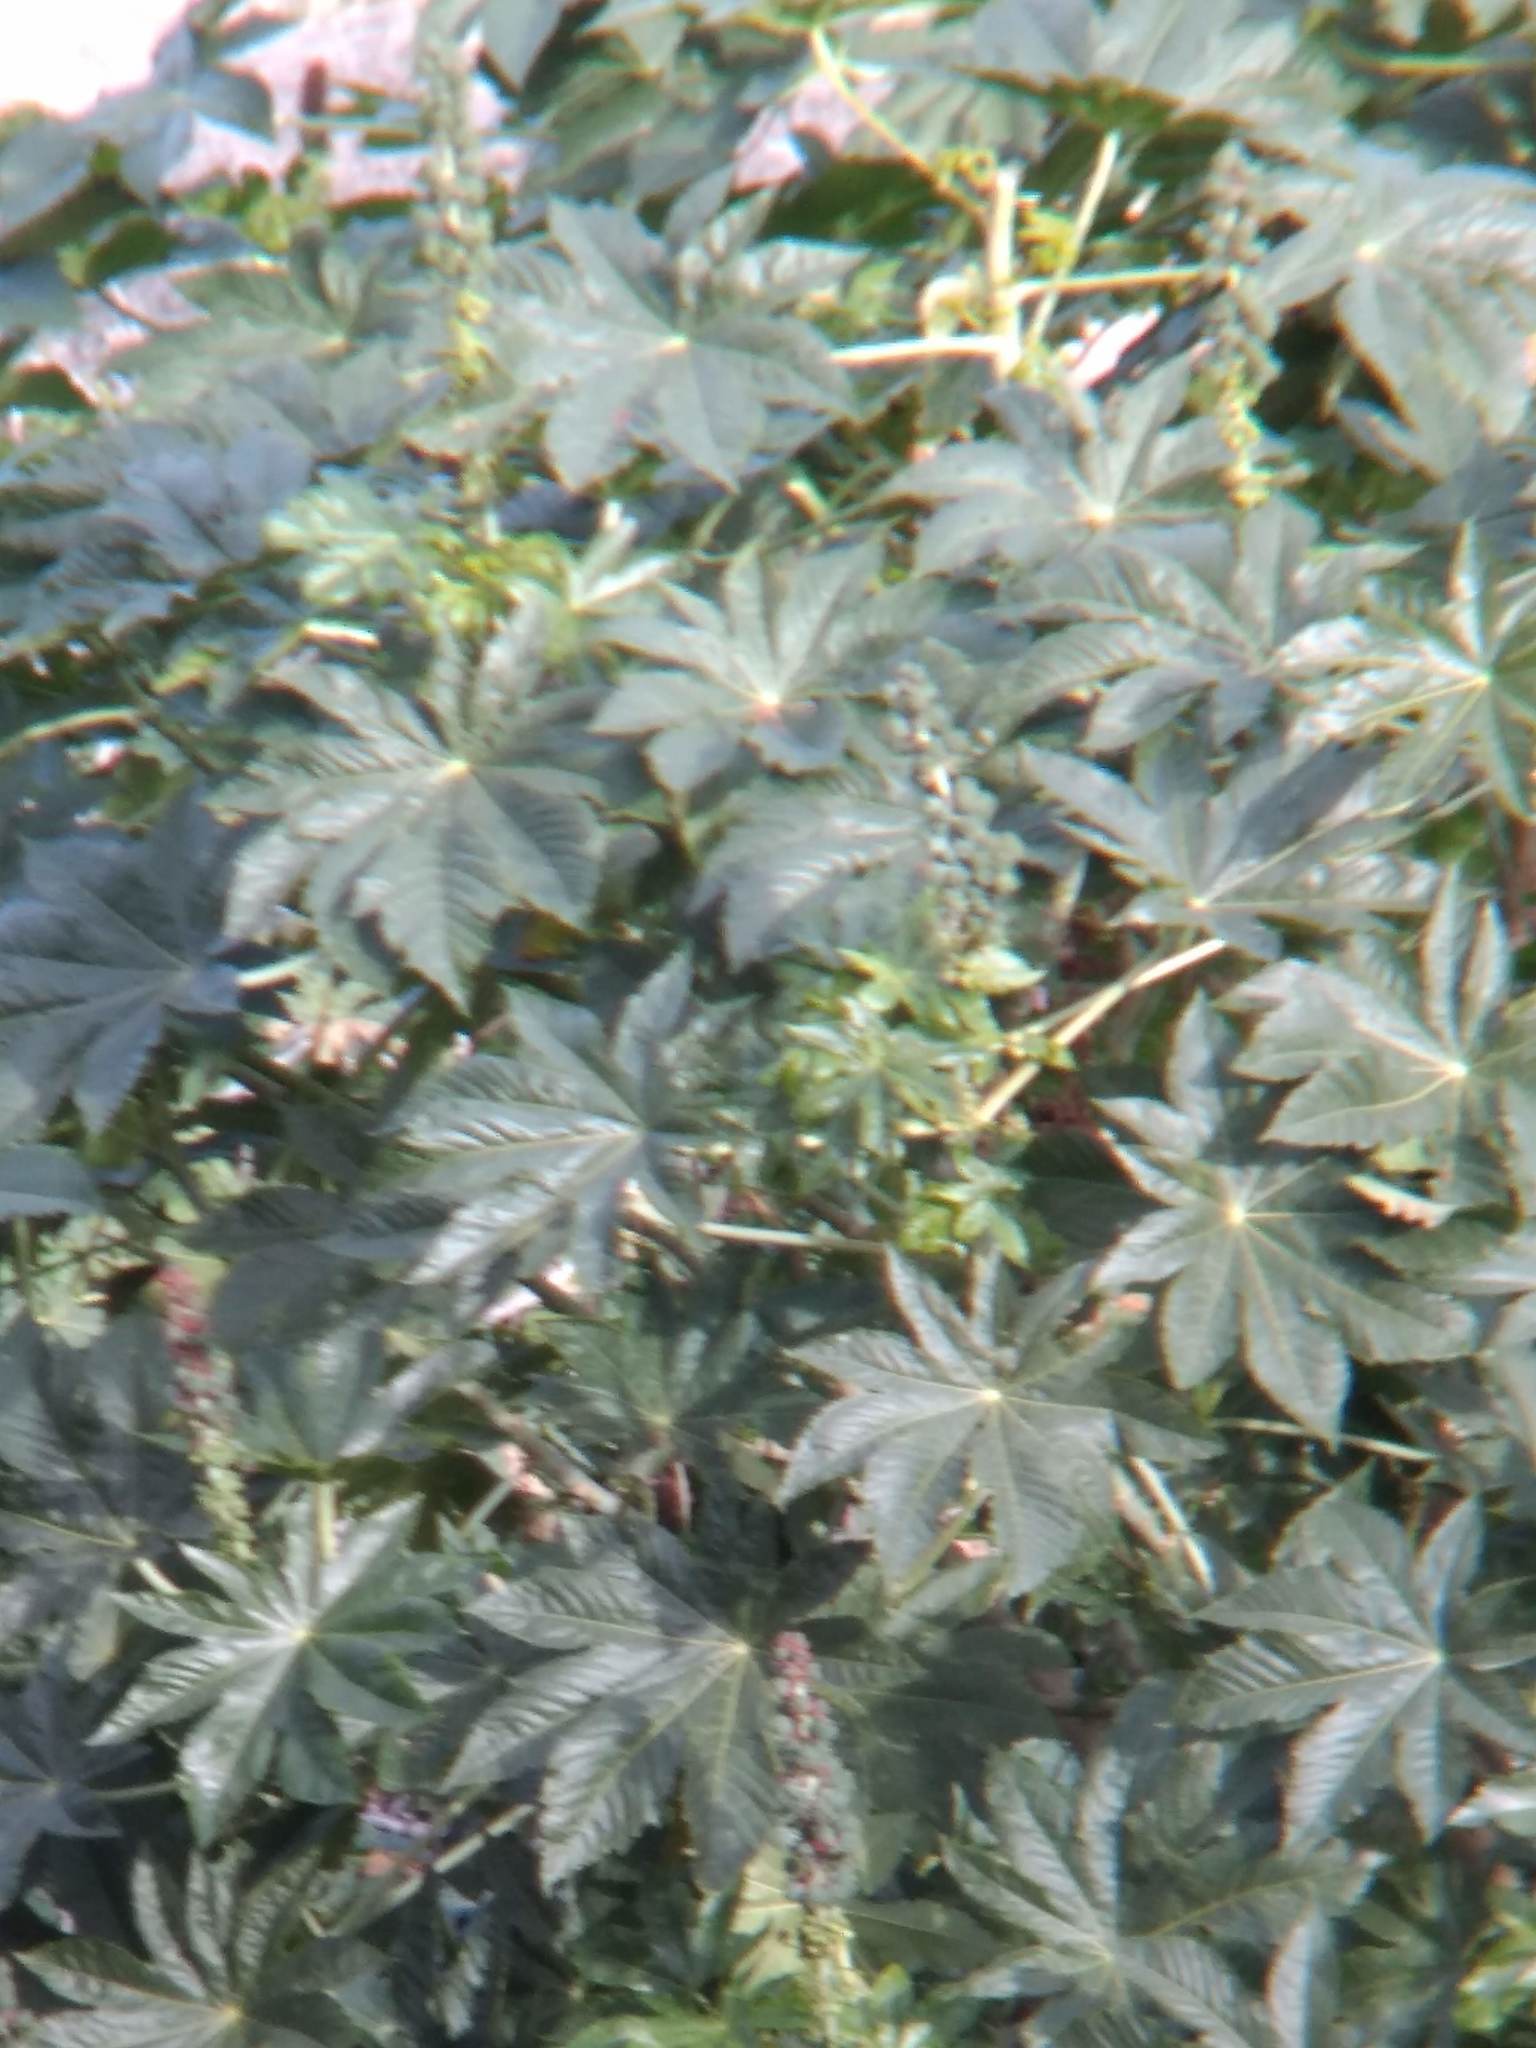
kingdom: Plantae
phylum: Tracheophyta
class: Magnoliopsida
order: Malpighiales
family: Euphorbiaceae
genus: Ricinus
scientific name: Ricinus communis
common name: Castor-oil-plant
